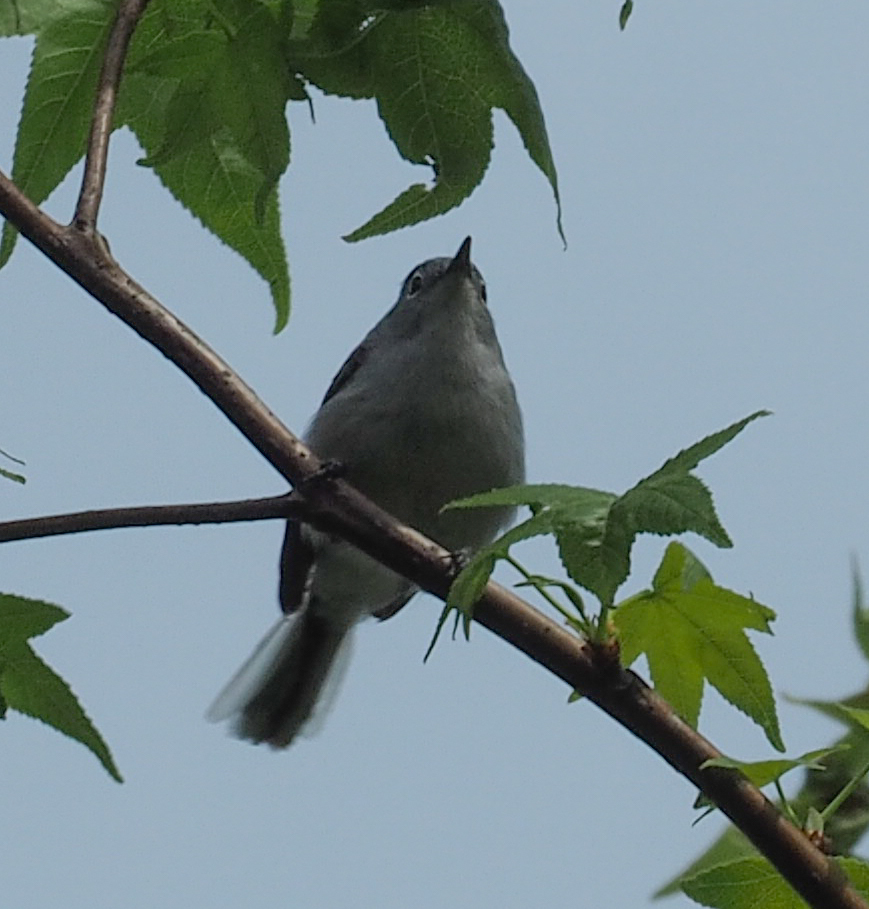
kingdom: Animalia
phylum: Chordata
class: Aves
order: Passeriformes
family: Polioptilidae
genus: Polioptila
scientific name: Polioptila caerulea
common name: Blue-gray gnatcatcher
